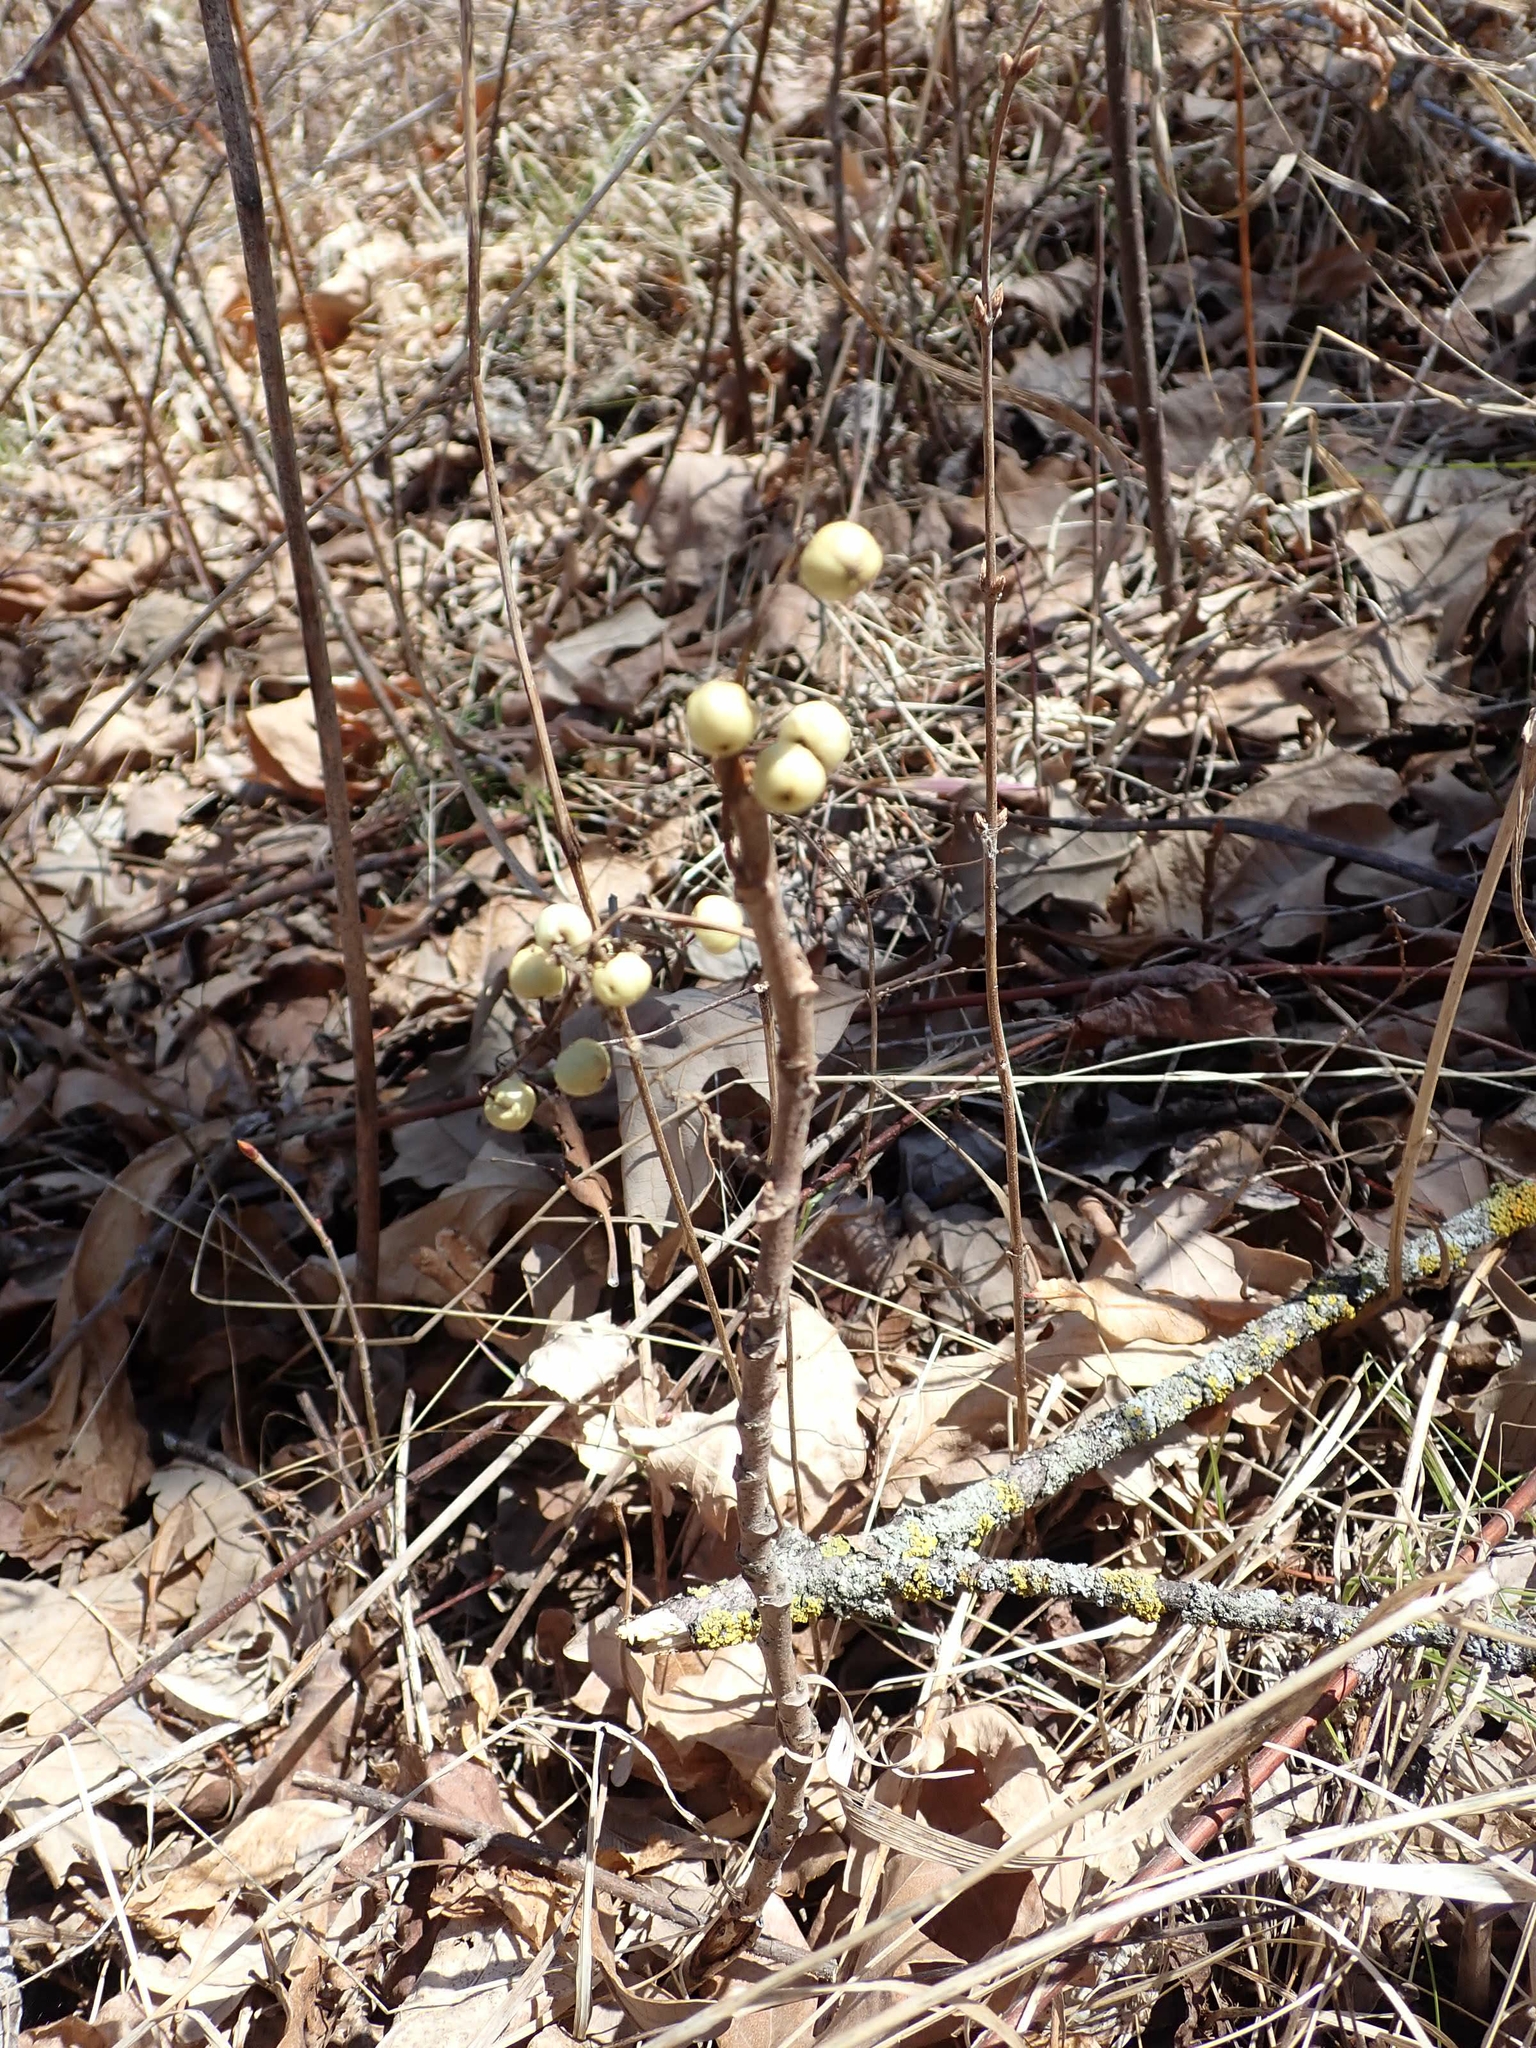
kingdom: Plantae
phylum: Tracheophyta
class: Magnoliopsida
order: Sapindales
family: Anacardiaceae
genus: Toxicodendron
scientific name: Toxicodendron rydbergii
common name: Rydberg's poison-ivy
